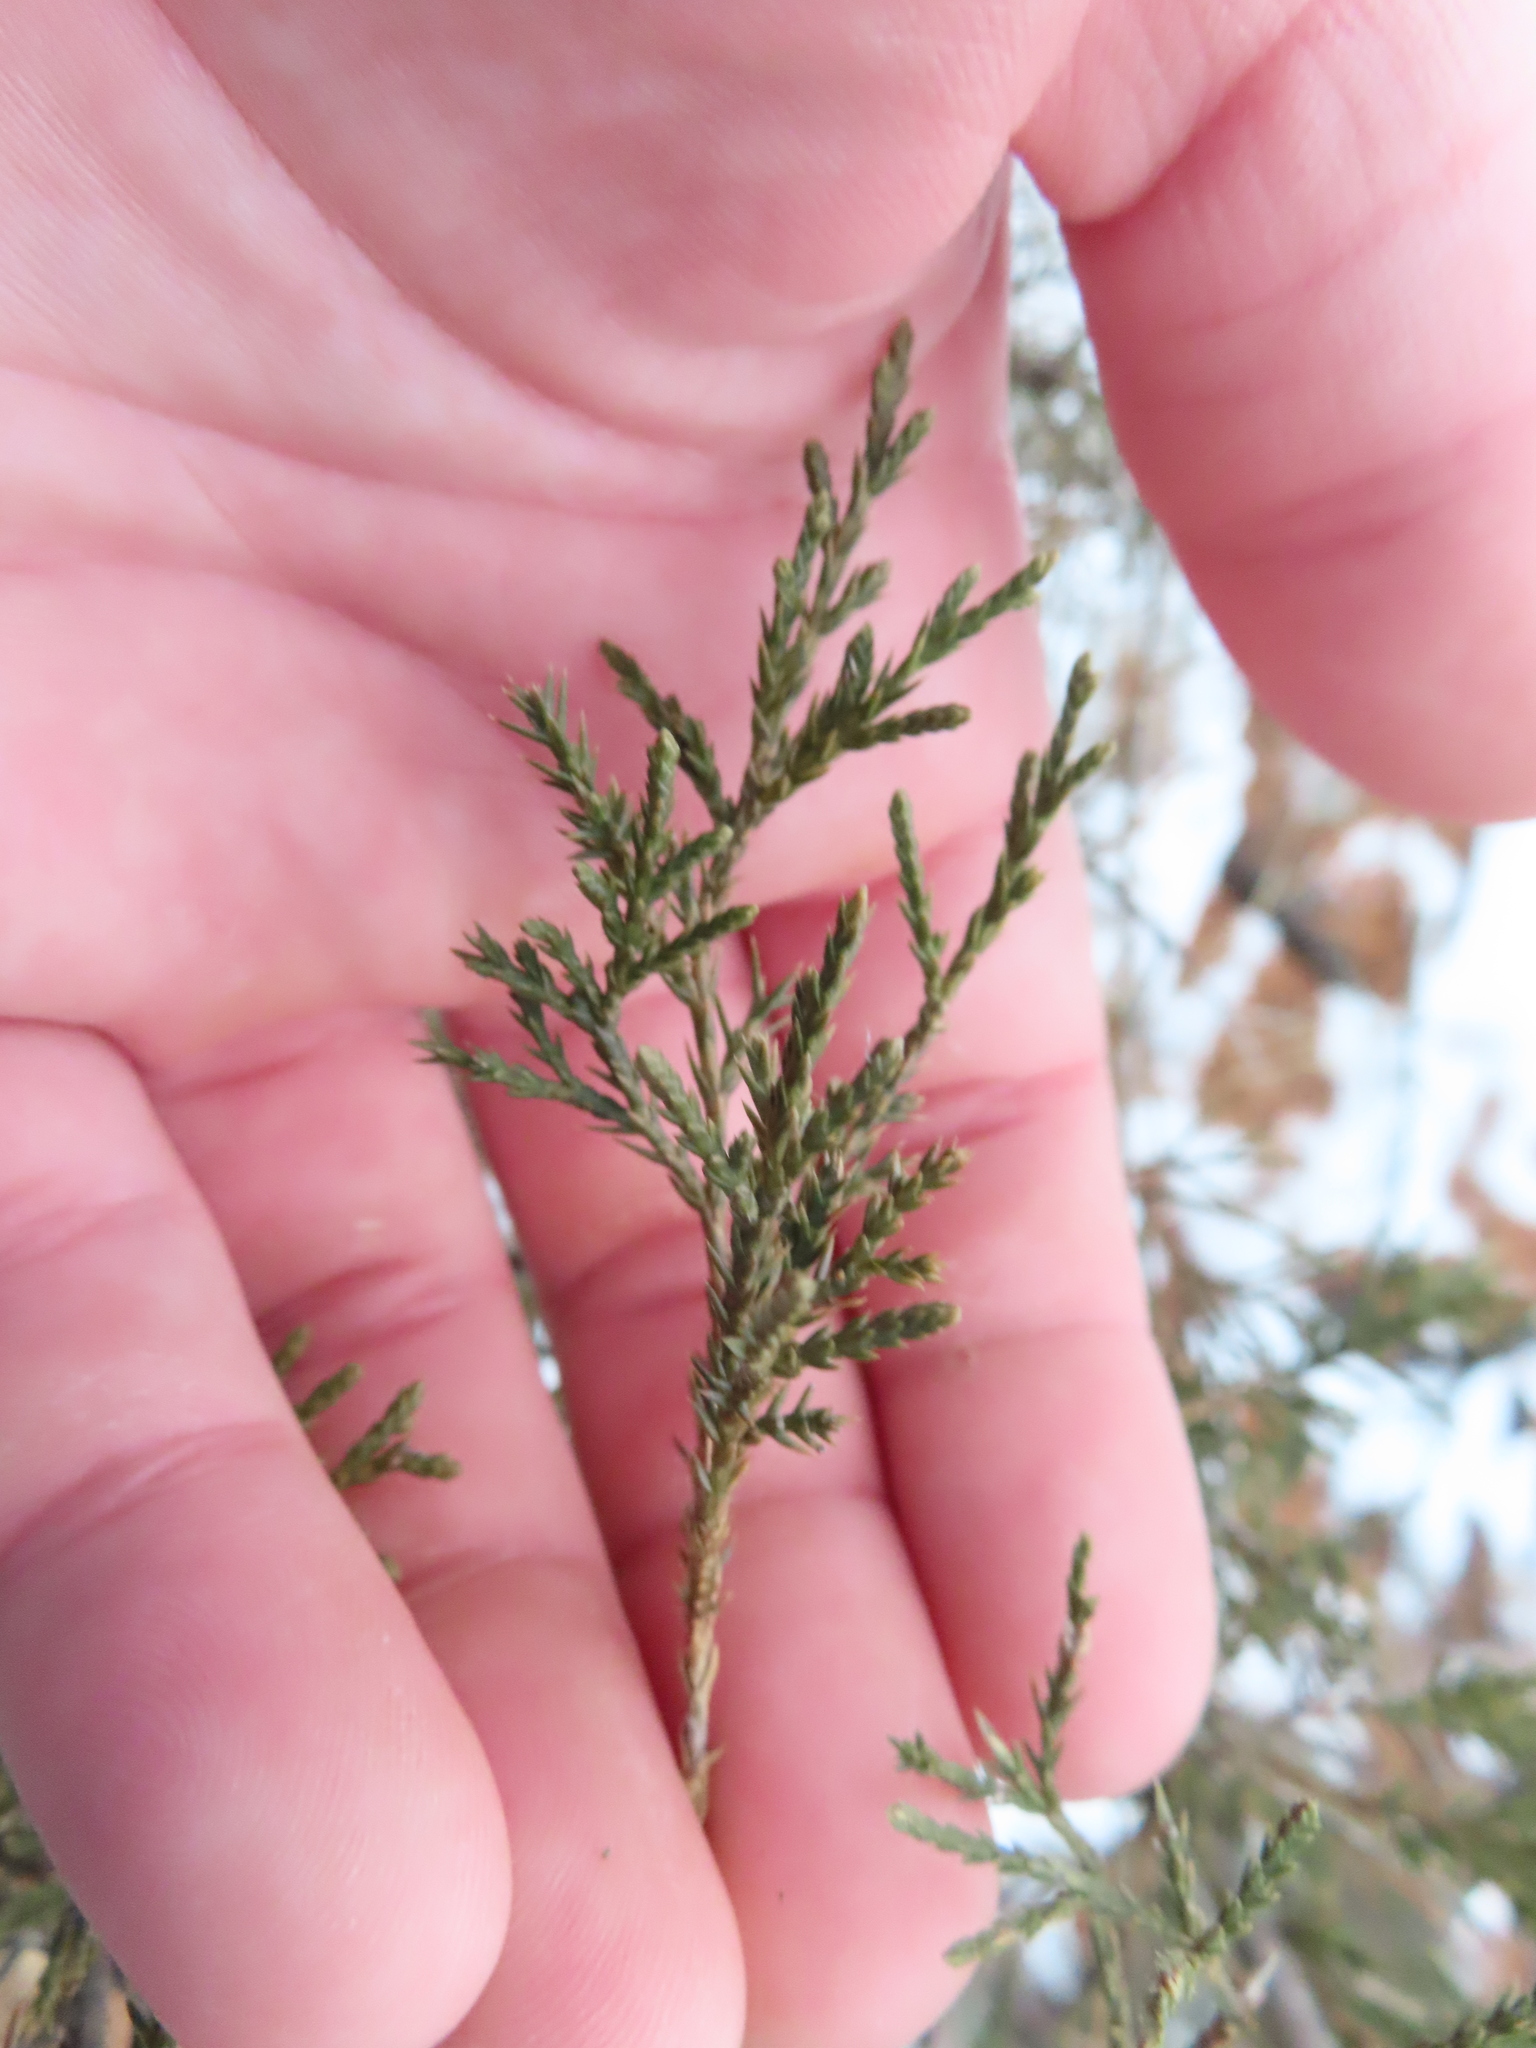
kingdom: Plantae
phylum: Tracheophyta
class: Pinopsida
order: Pinales
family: Cupressaceae
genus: Juniperus
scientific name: Juniperus virginiana
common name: Red juniper
